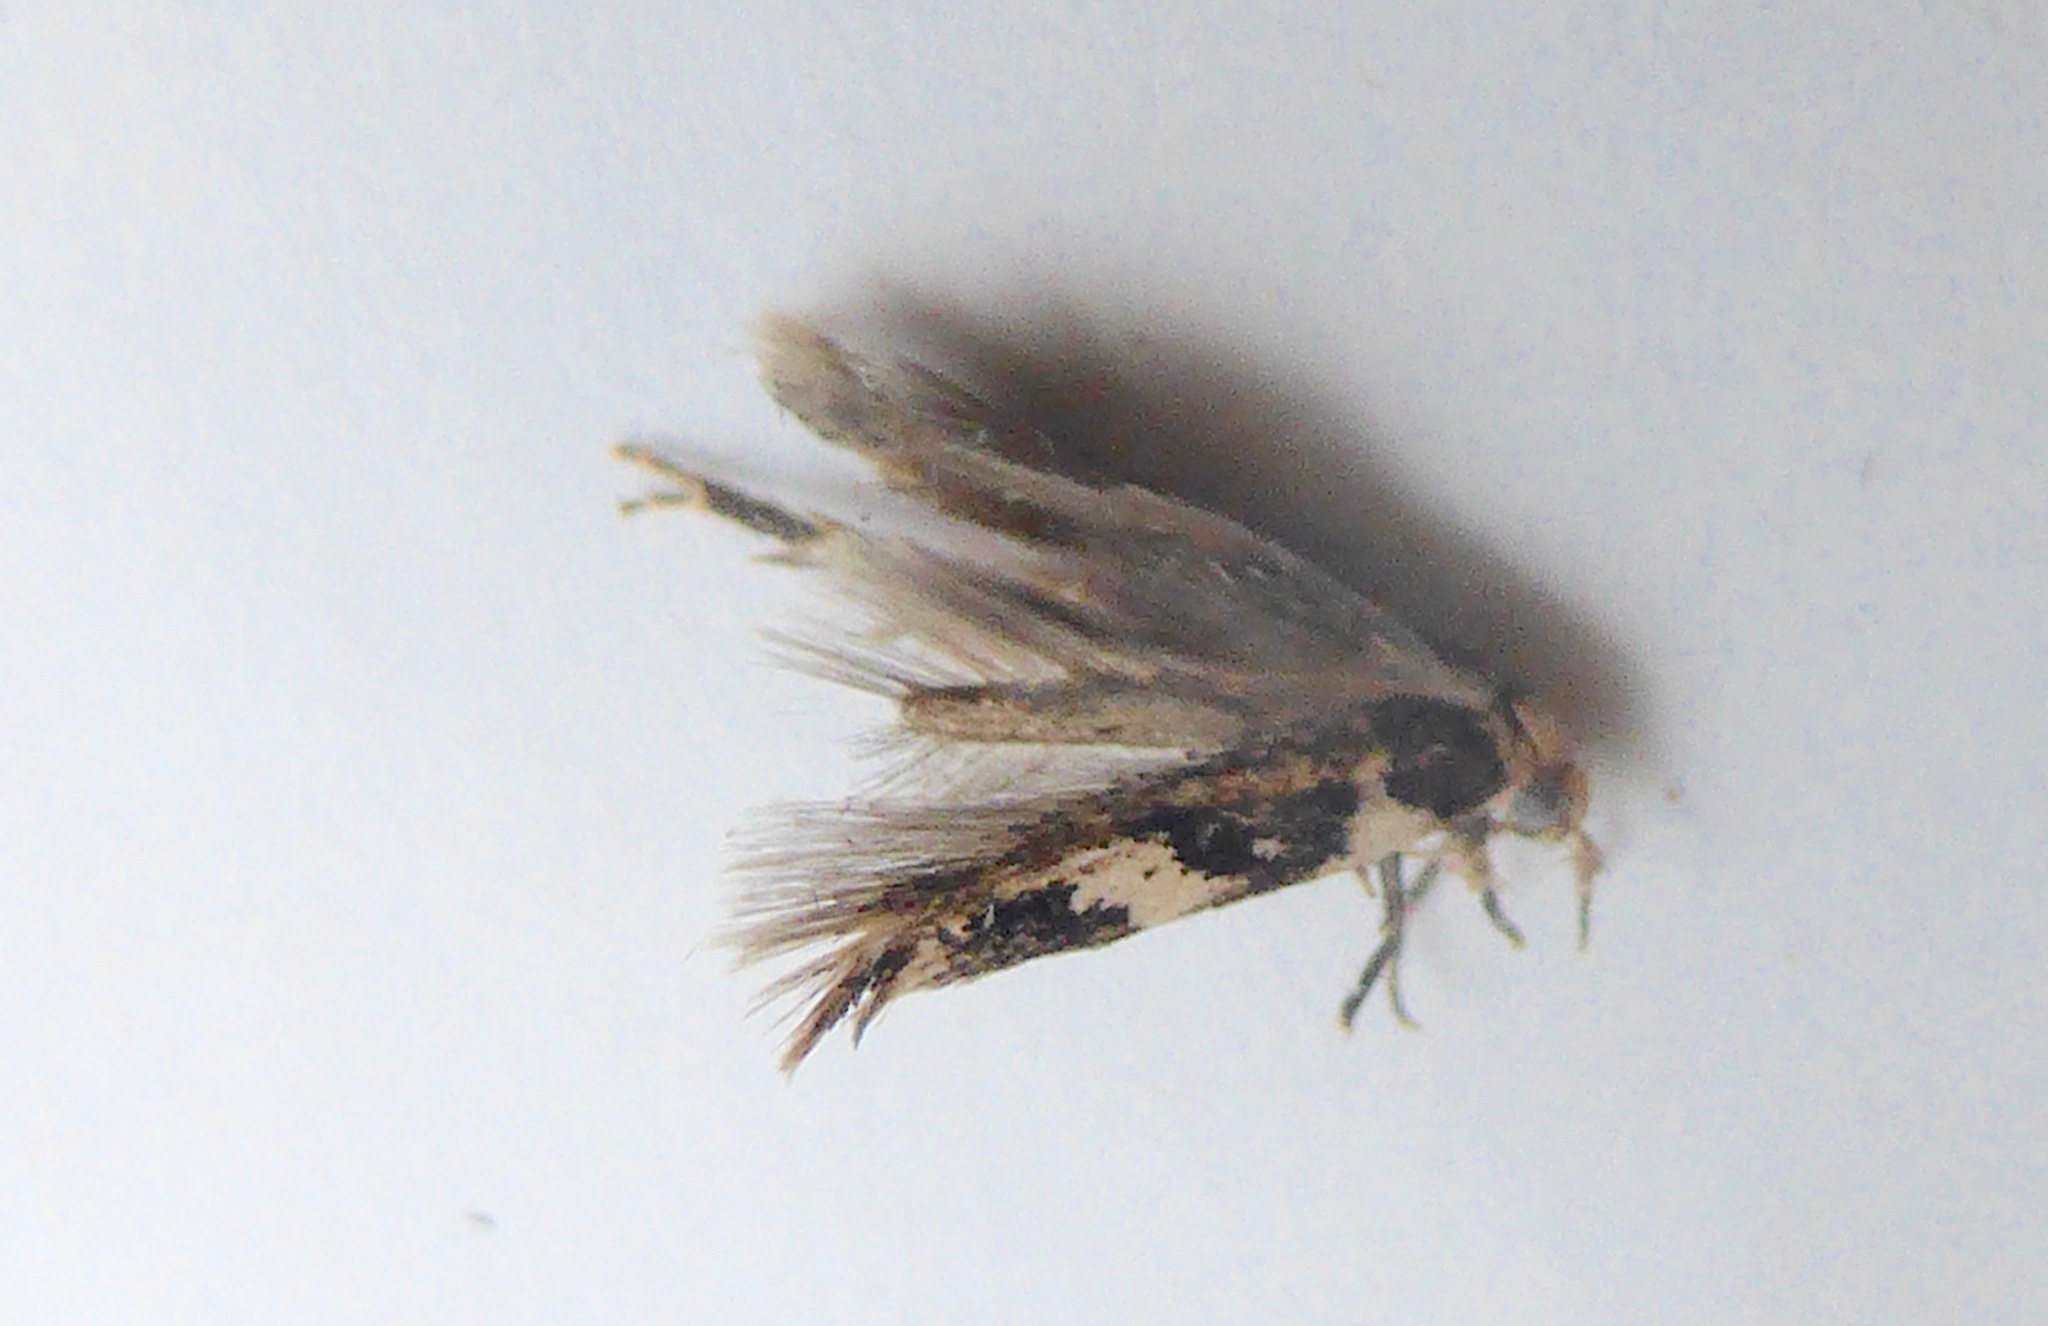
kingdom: Animalia
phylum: Arthropoda
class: Insecta
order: Lepidoptera
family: Cosmopterigidae
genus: Pyroderces
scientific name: Pyroderces deamatella
